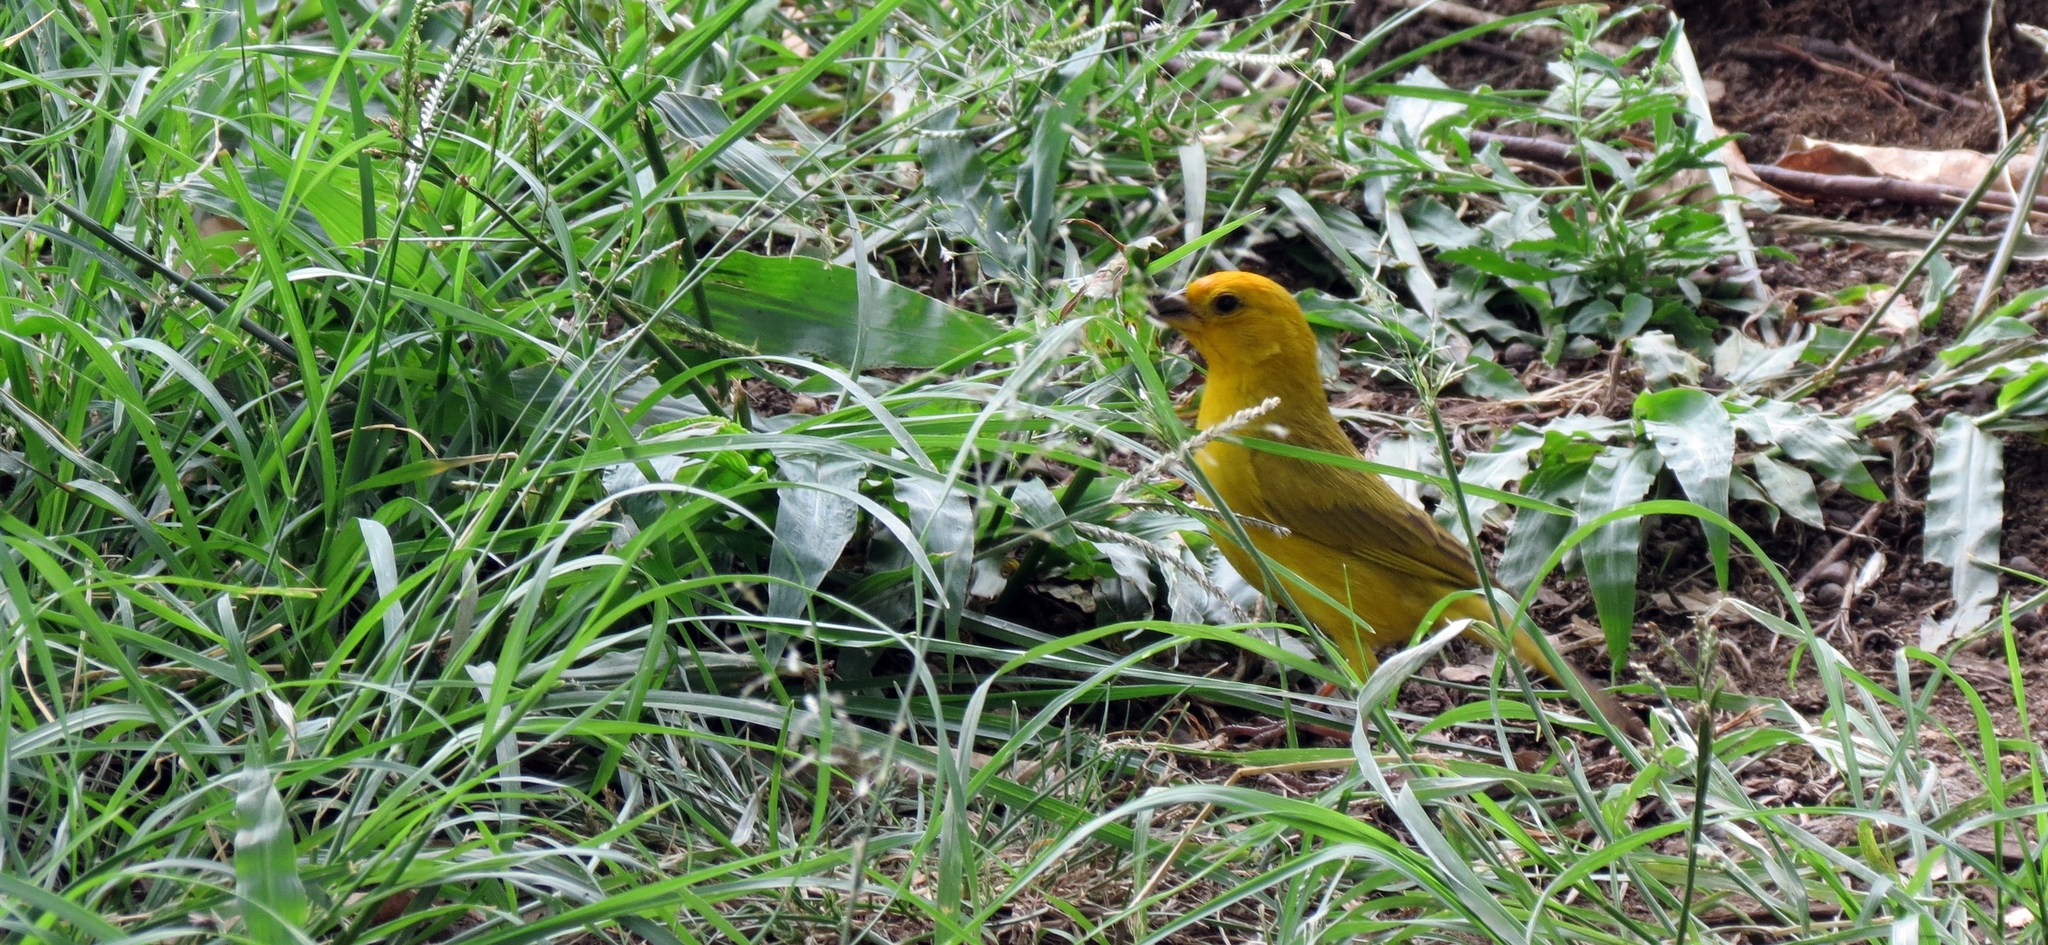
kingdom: Animalia
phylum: Chordata
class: Aves
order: Passeriformes
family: Thraupidae
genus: Sicalis
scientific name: Sicalis flaveola
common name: Saffron finch
